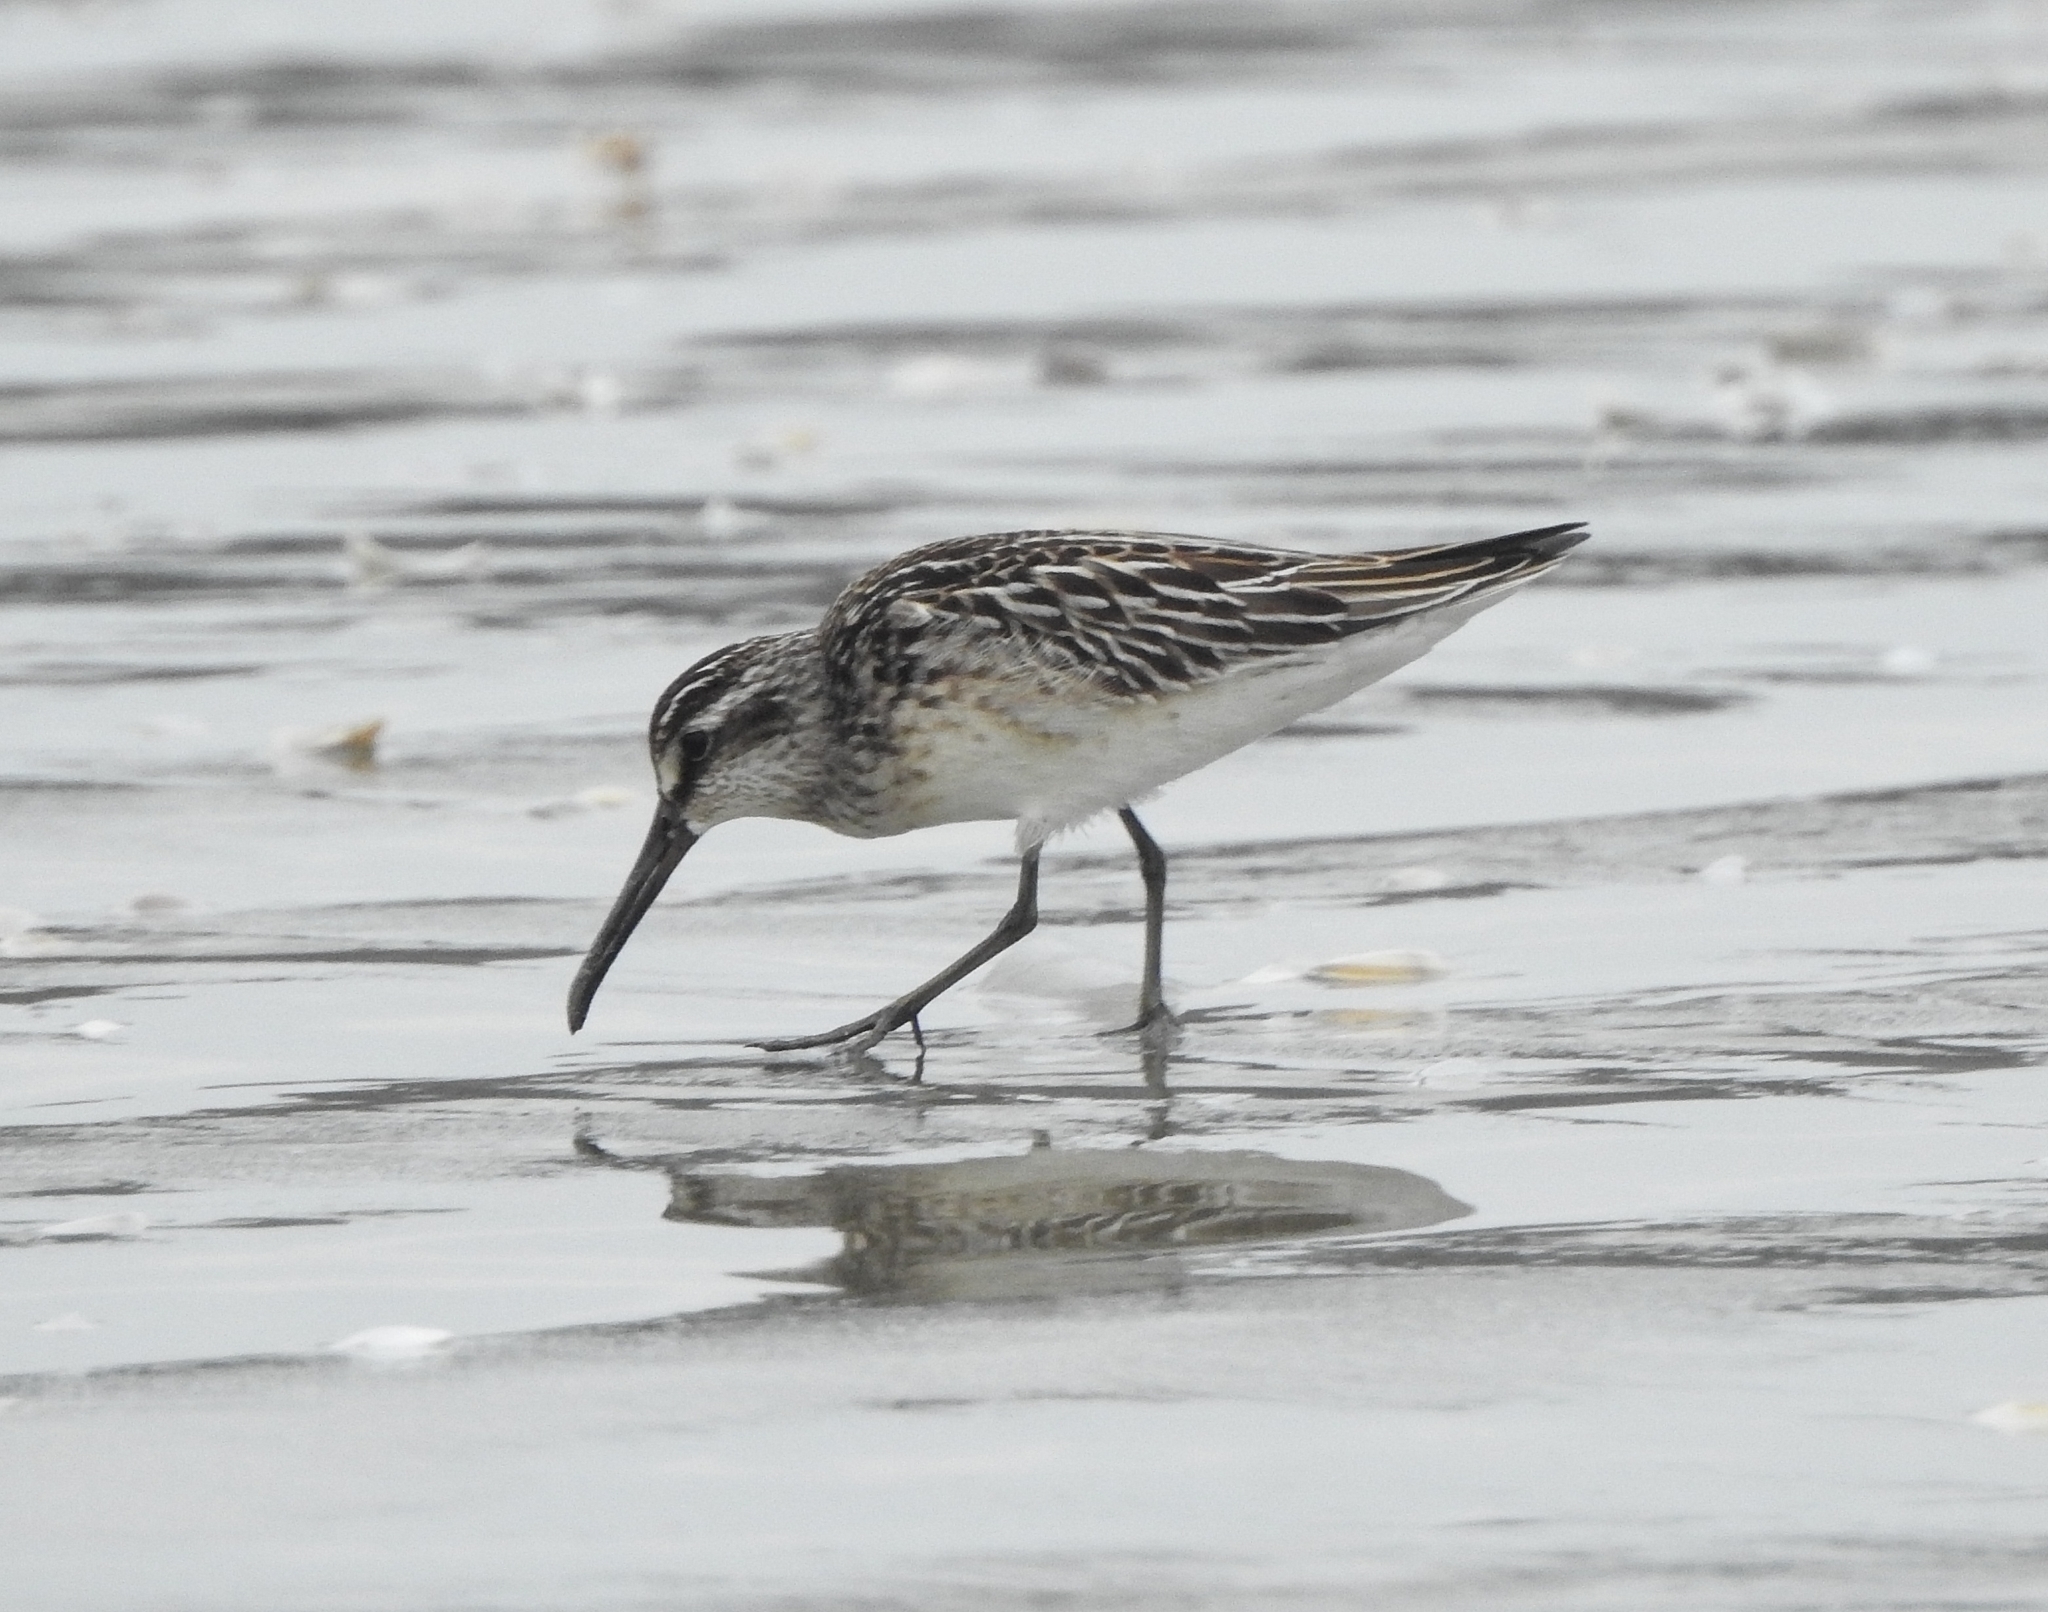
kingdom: Animalia
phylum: Chordata
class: Aves
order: Charadriiformes
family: Scolopacidae
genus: Calidris
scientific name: Calidris falcinellus
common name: Broad-billed sandpiper
